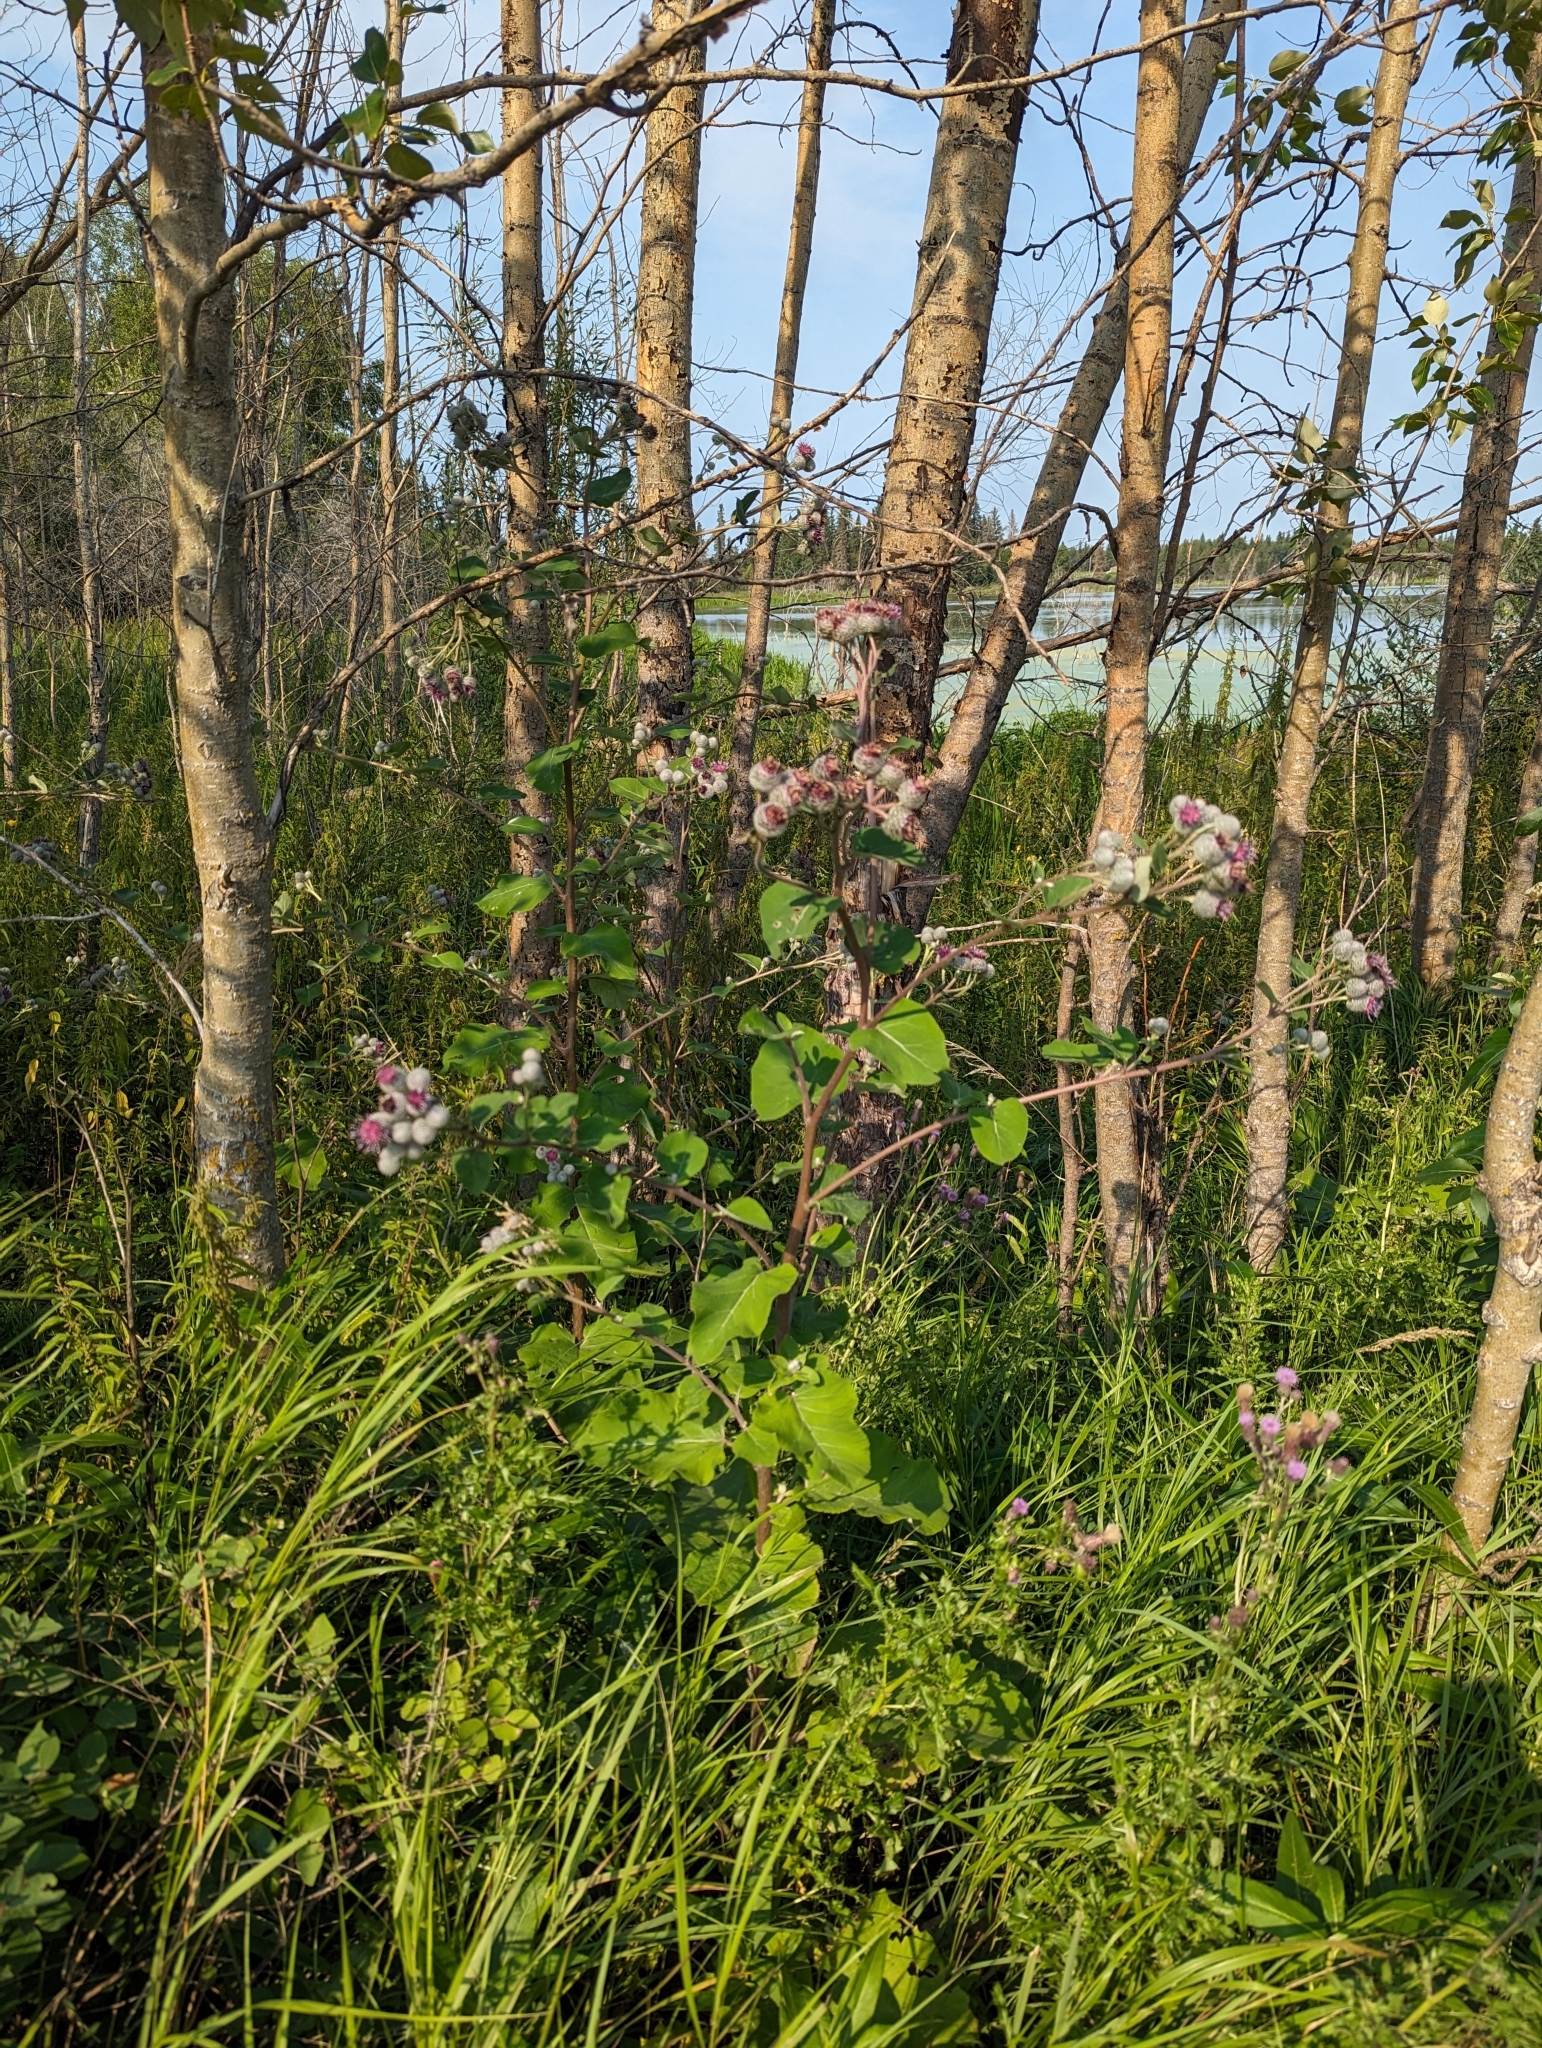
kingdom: Plantae
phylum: Tracheophyta
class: Magnoliopsida
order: Asterales
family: Asteraceae
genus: Arctium
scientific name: Arctium tomentosum
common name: Woolly burdock
